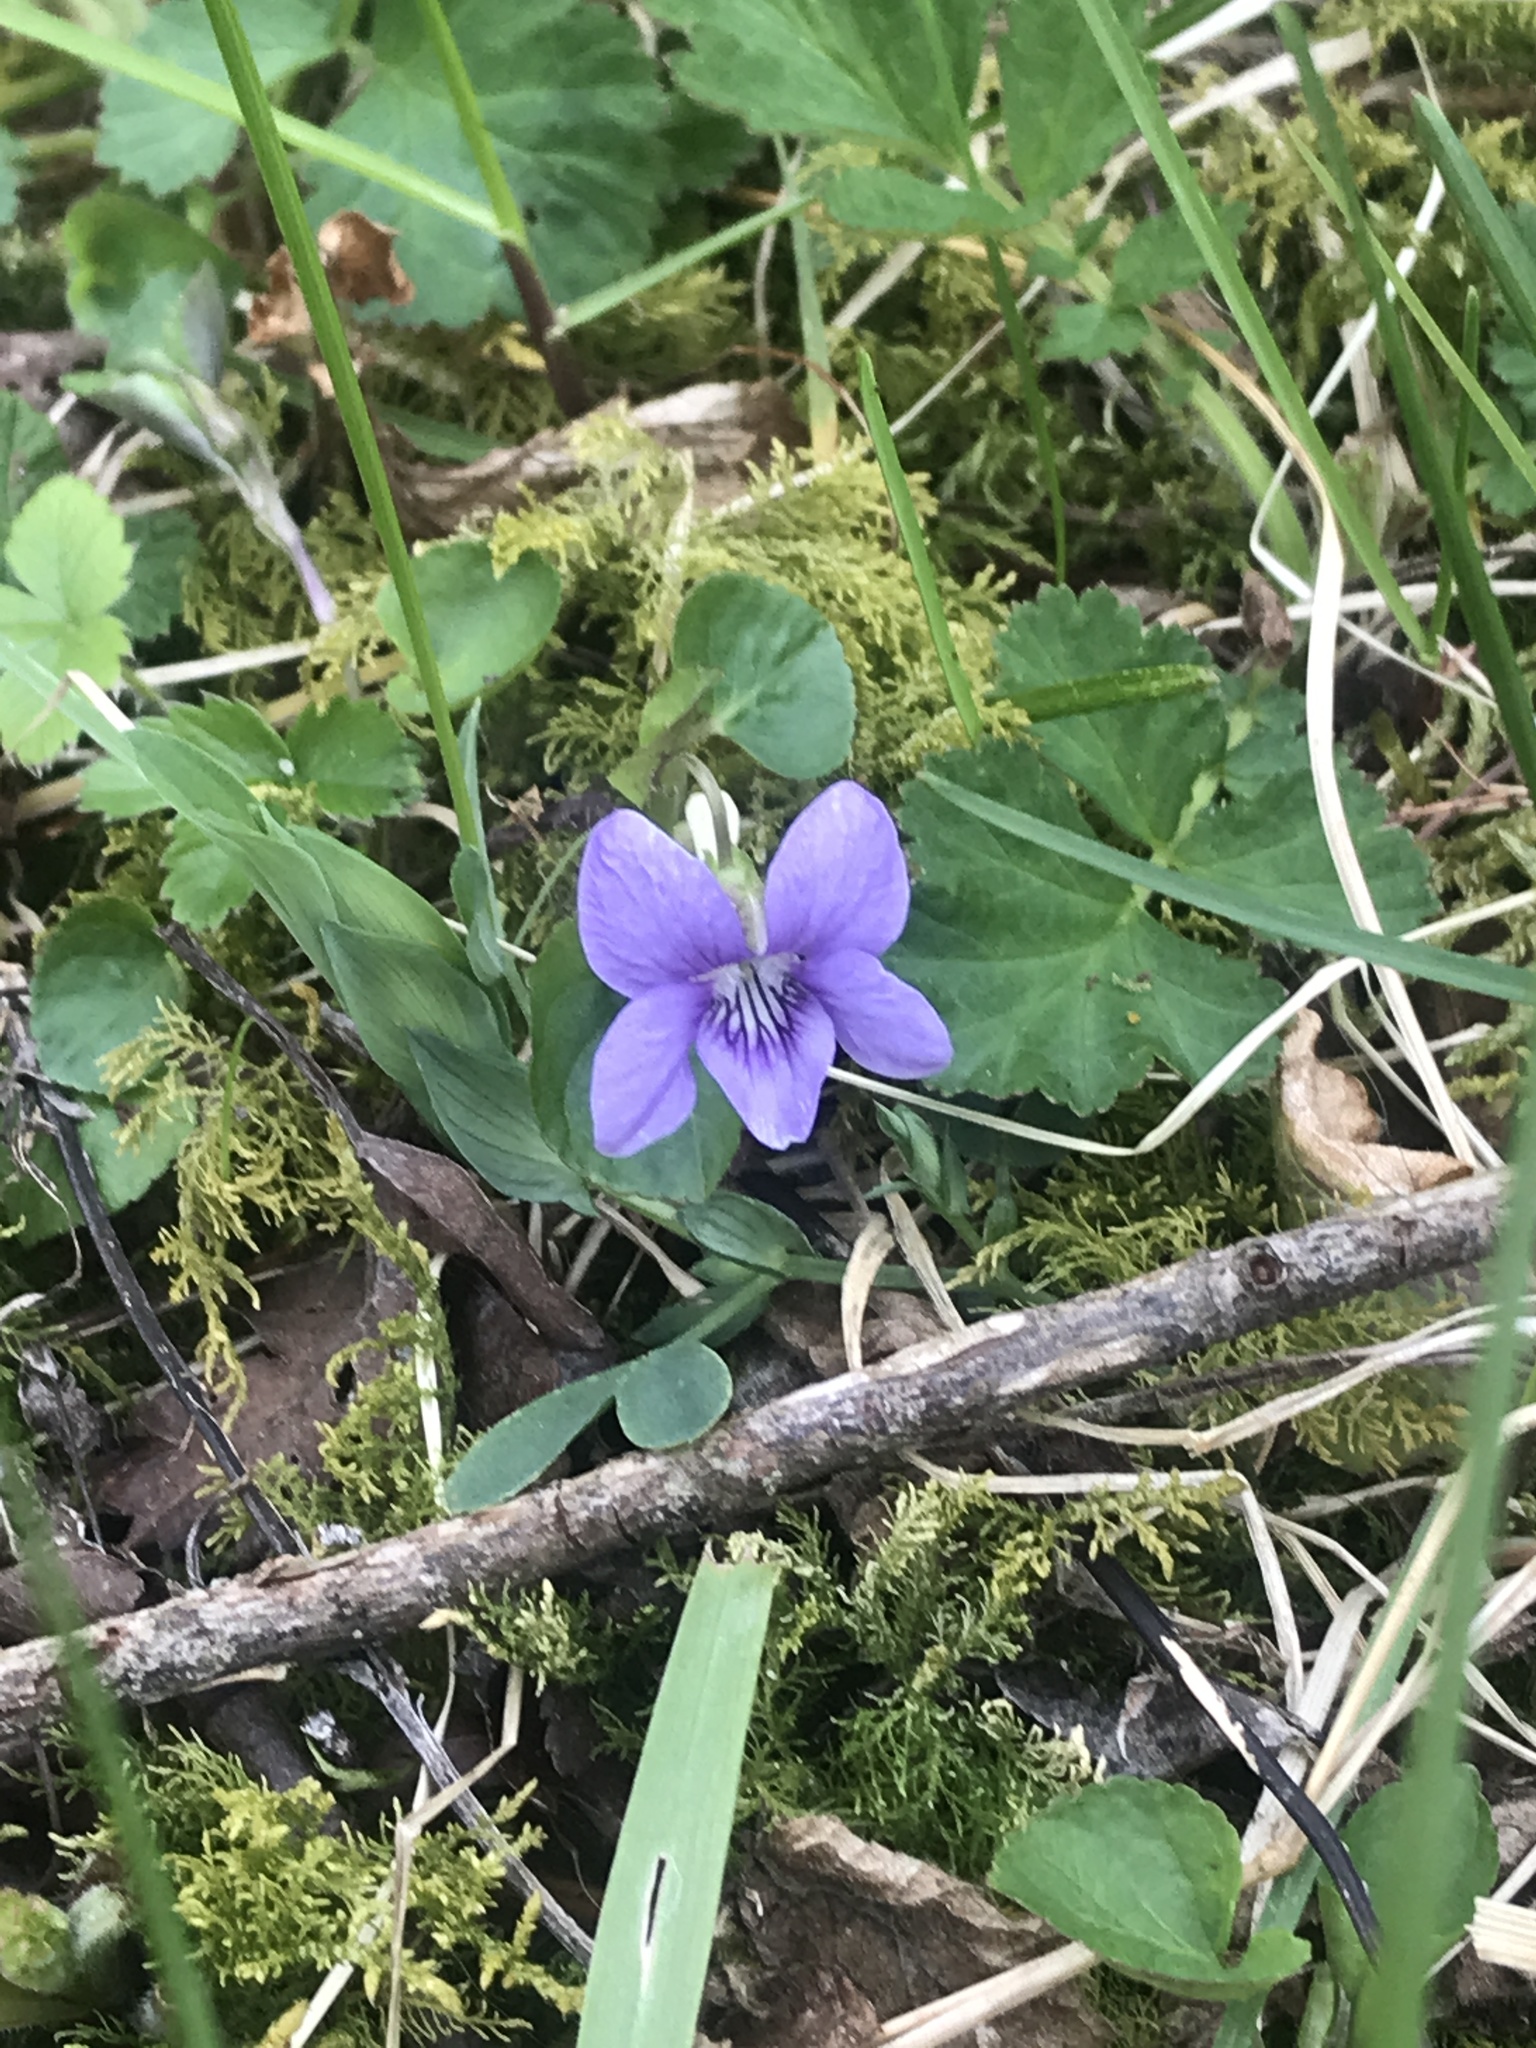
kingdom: Plantae
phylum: Tracheophyta
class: Magnoliopsida
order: Malpighiales
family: Violaceae
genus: Viola
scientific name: Viola riviniana
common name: Common dog-violet
